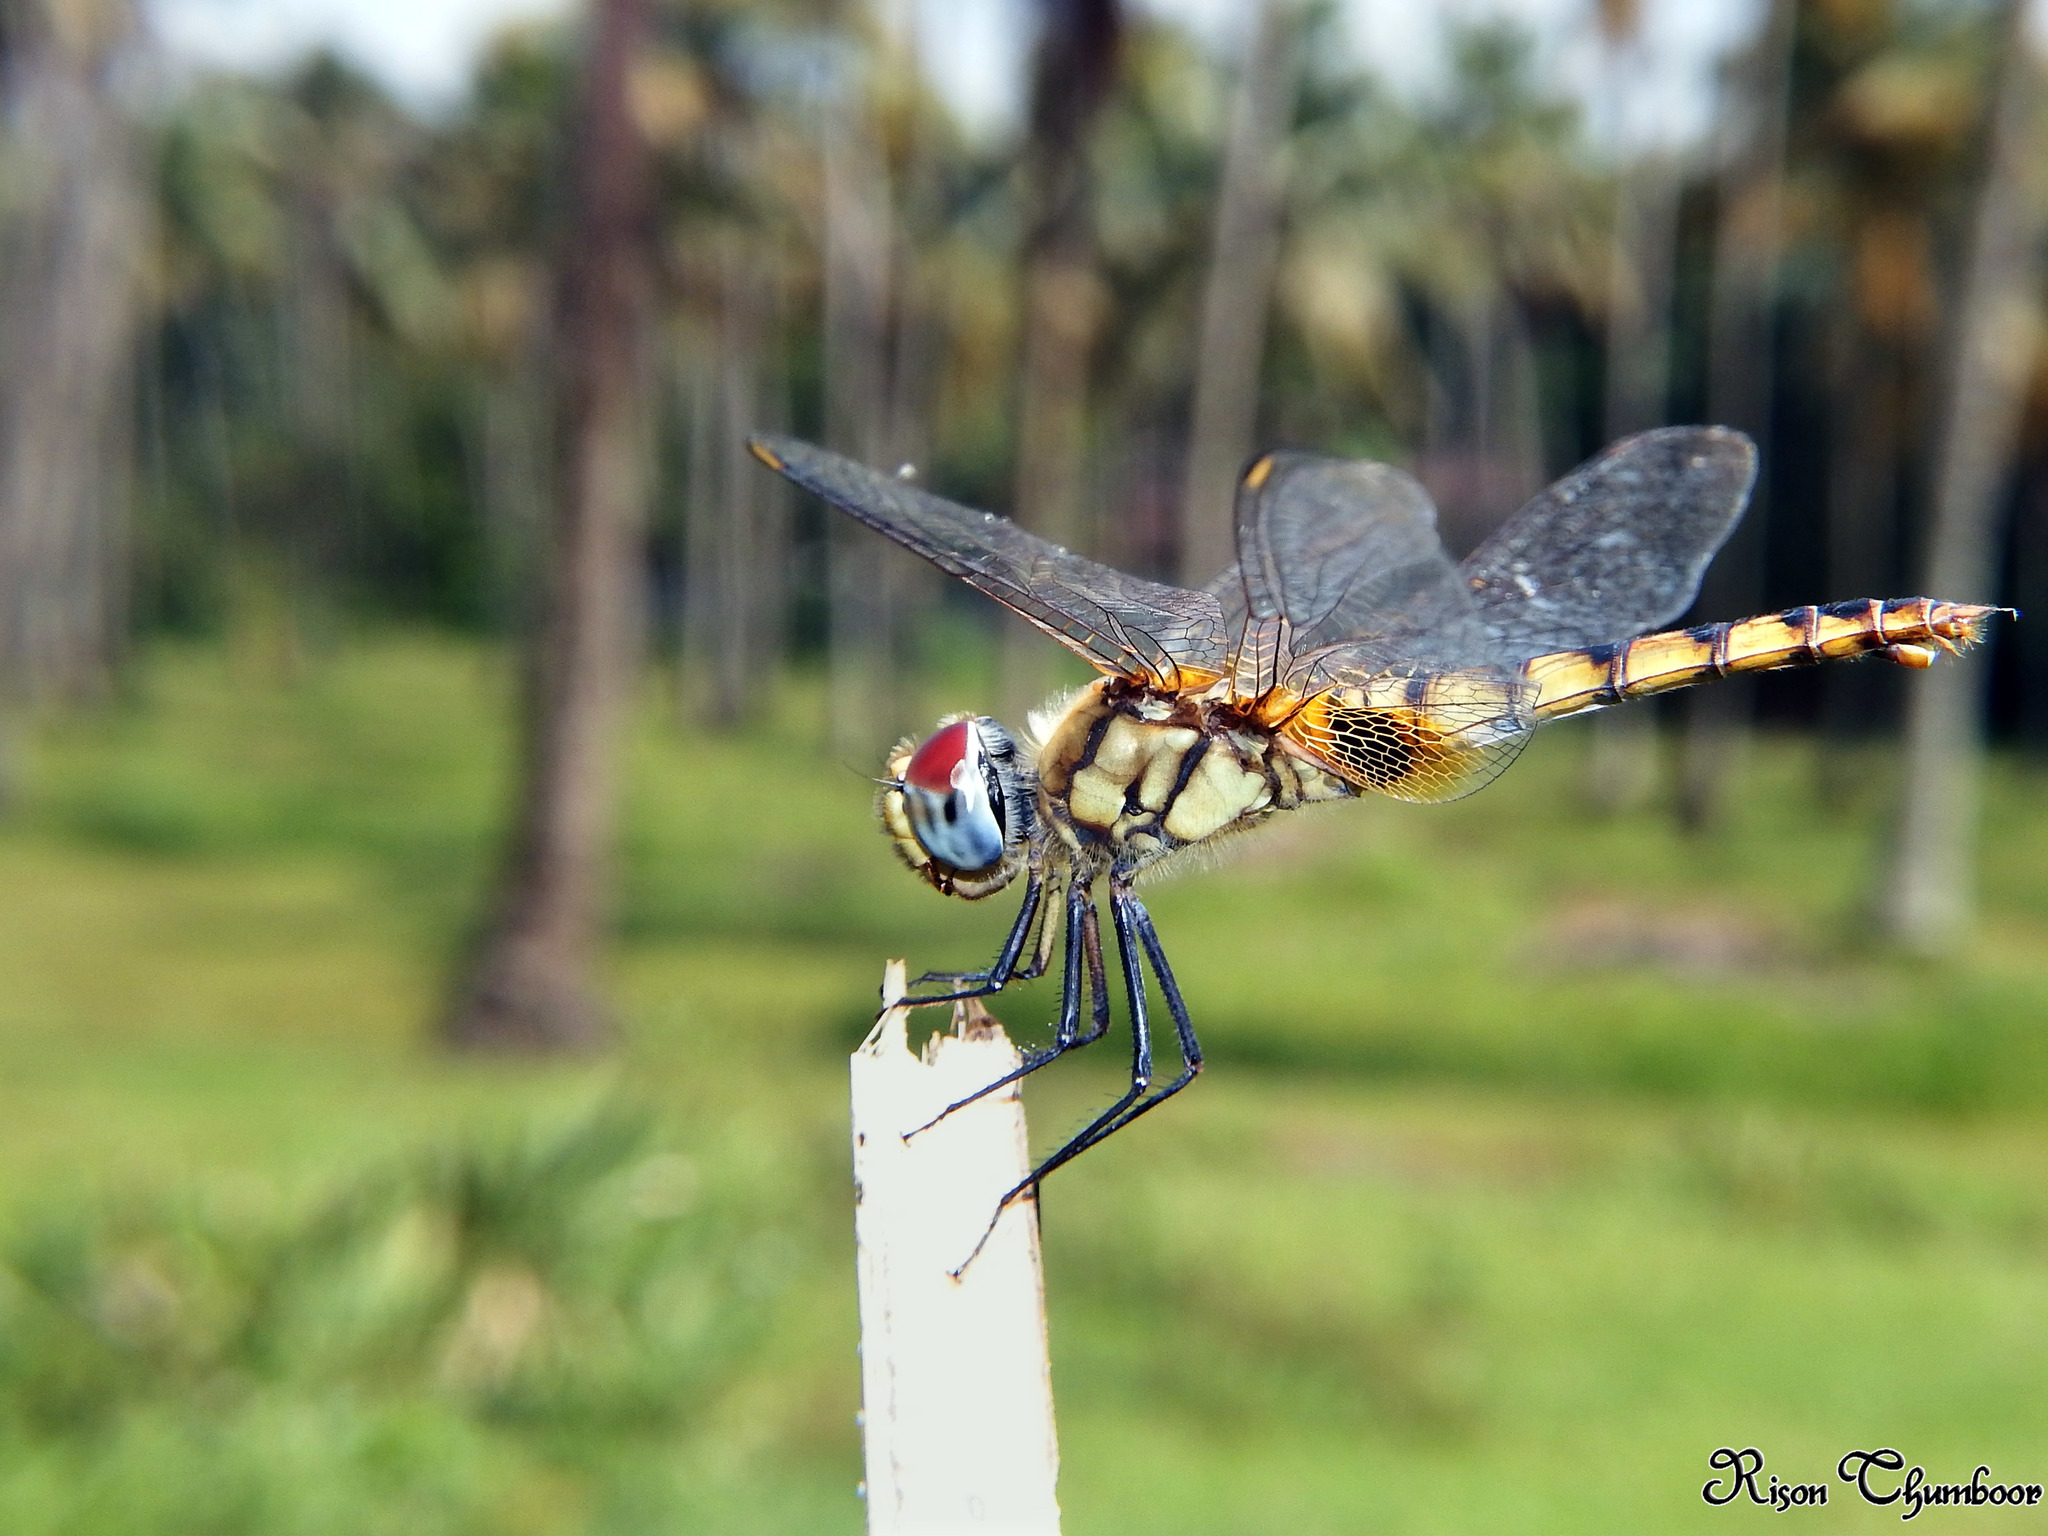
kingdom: Animalia
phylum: Arthropoda
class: Insecta
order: Odonata
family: Libellulidae
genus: Urothemis
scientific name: Urothemis signata
